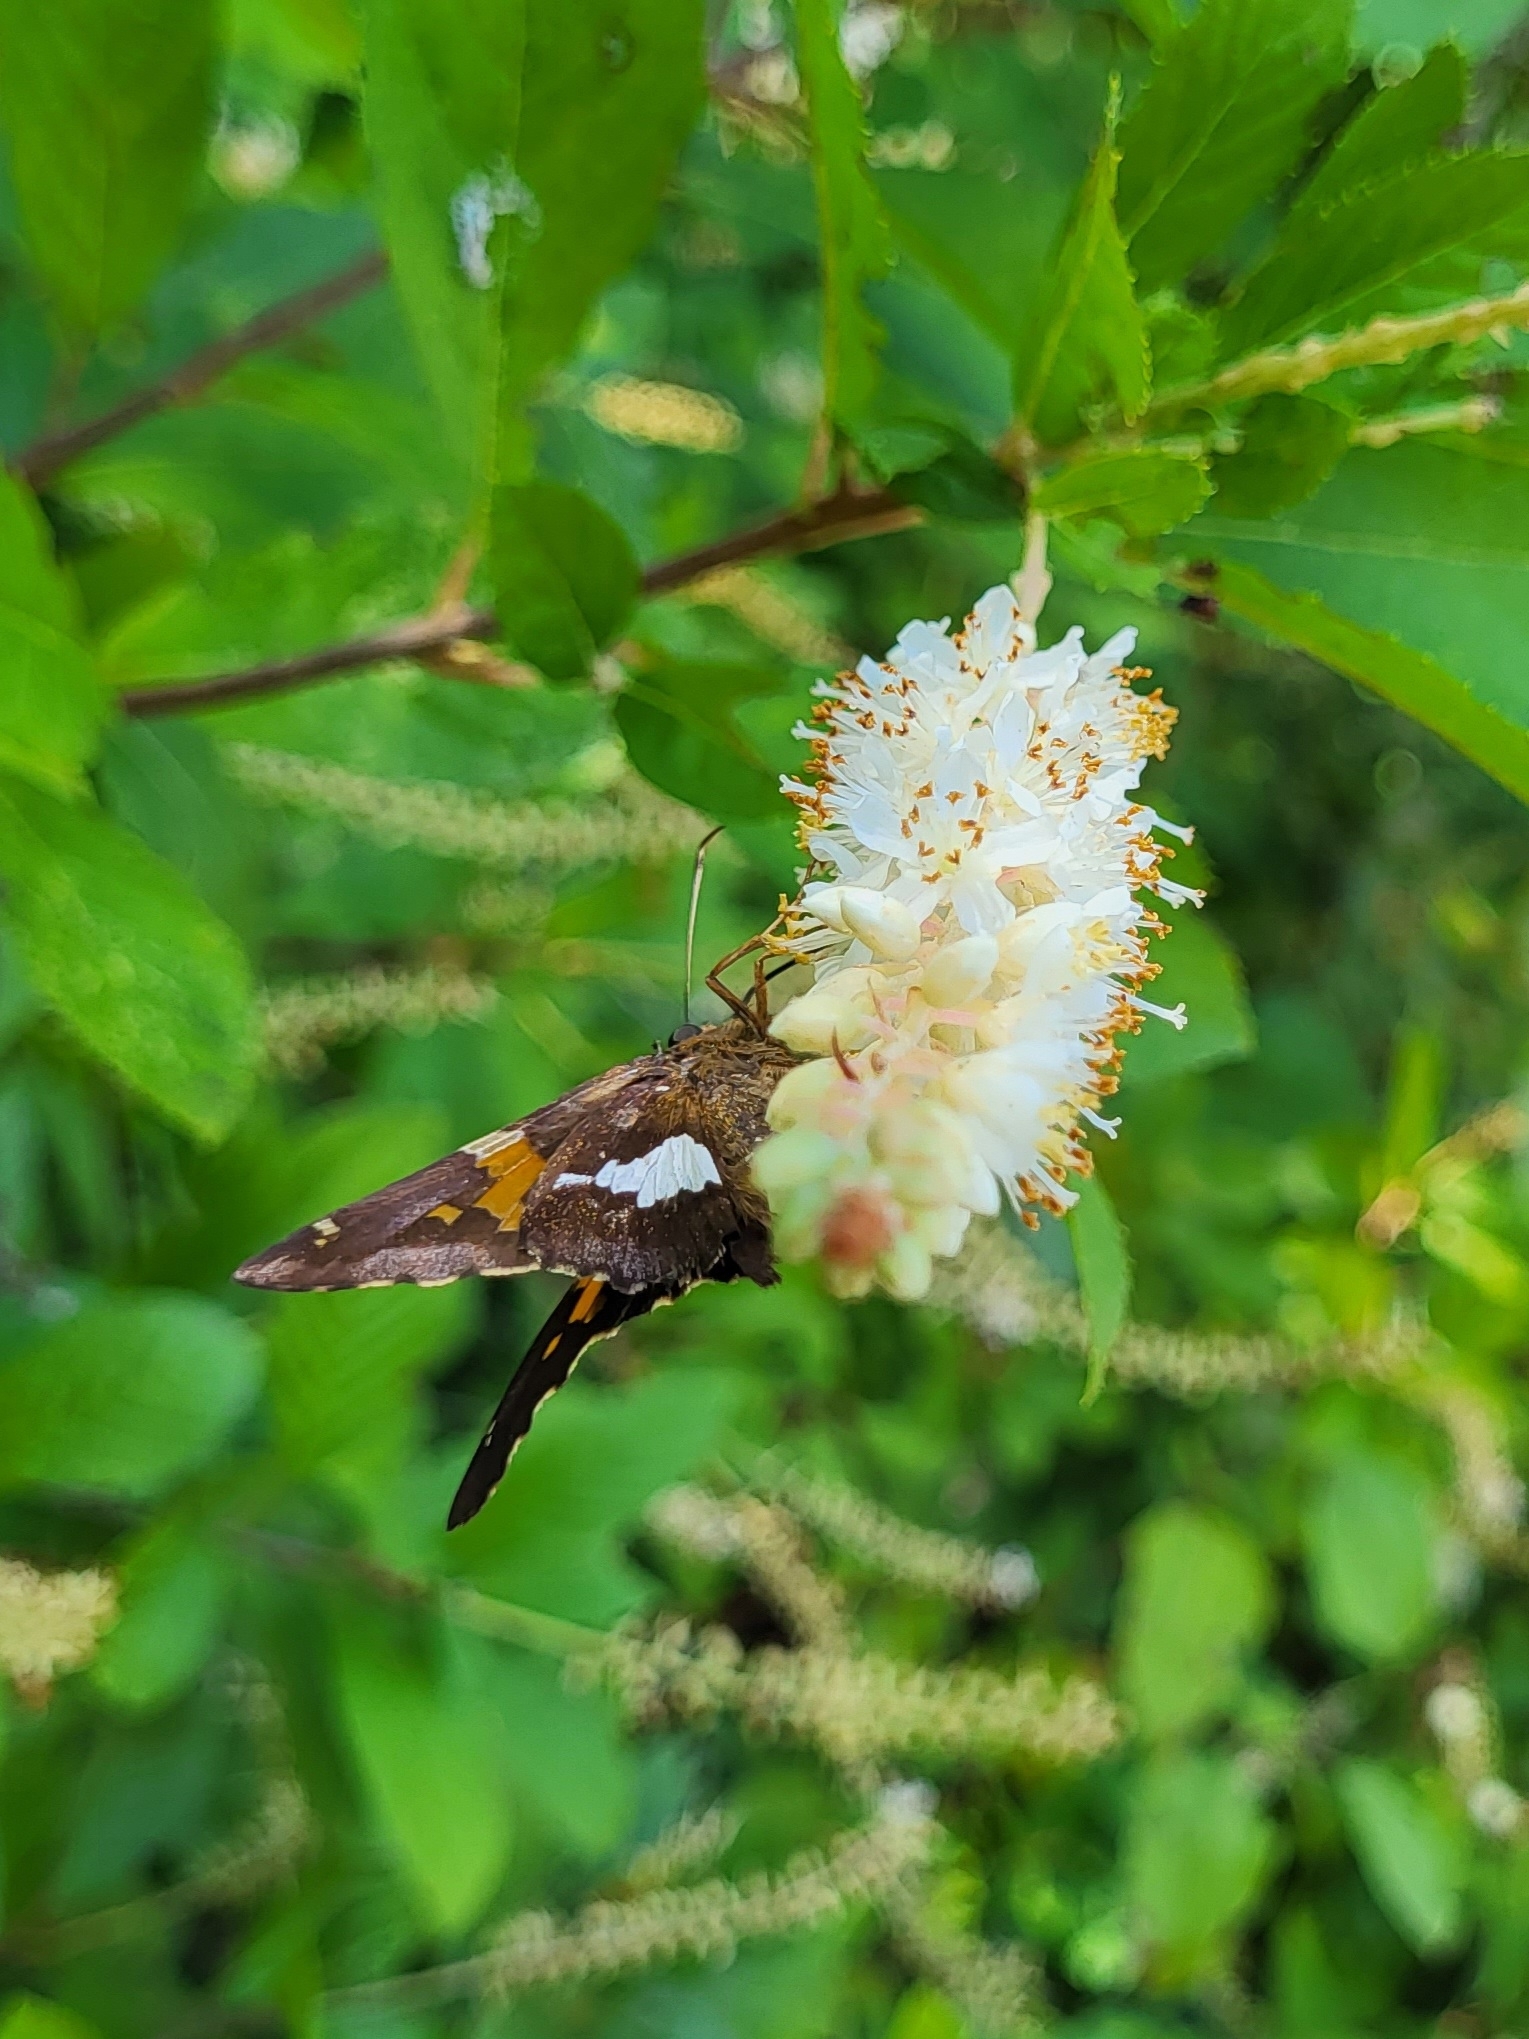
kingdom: Animalia
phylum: Arthropoda
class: Insecta
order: Lepidoptera
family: Hesperiidae
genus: Epargyreus
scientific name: Epargyreus clarus
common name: Silver-spotted skipper
